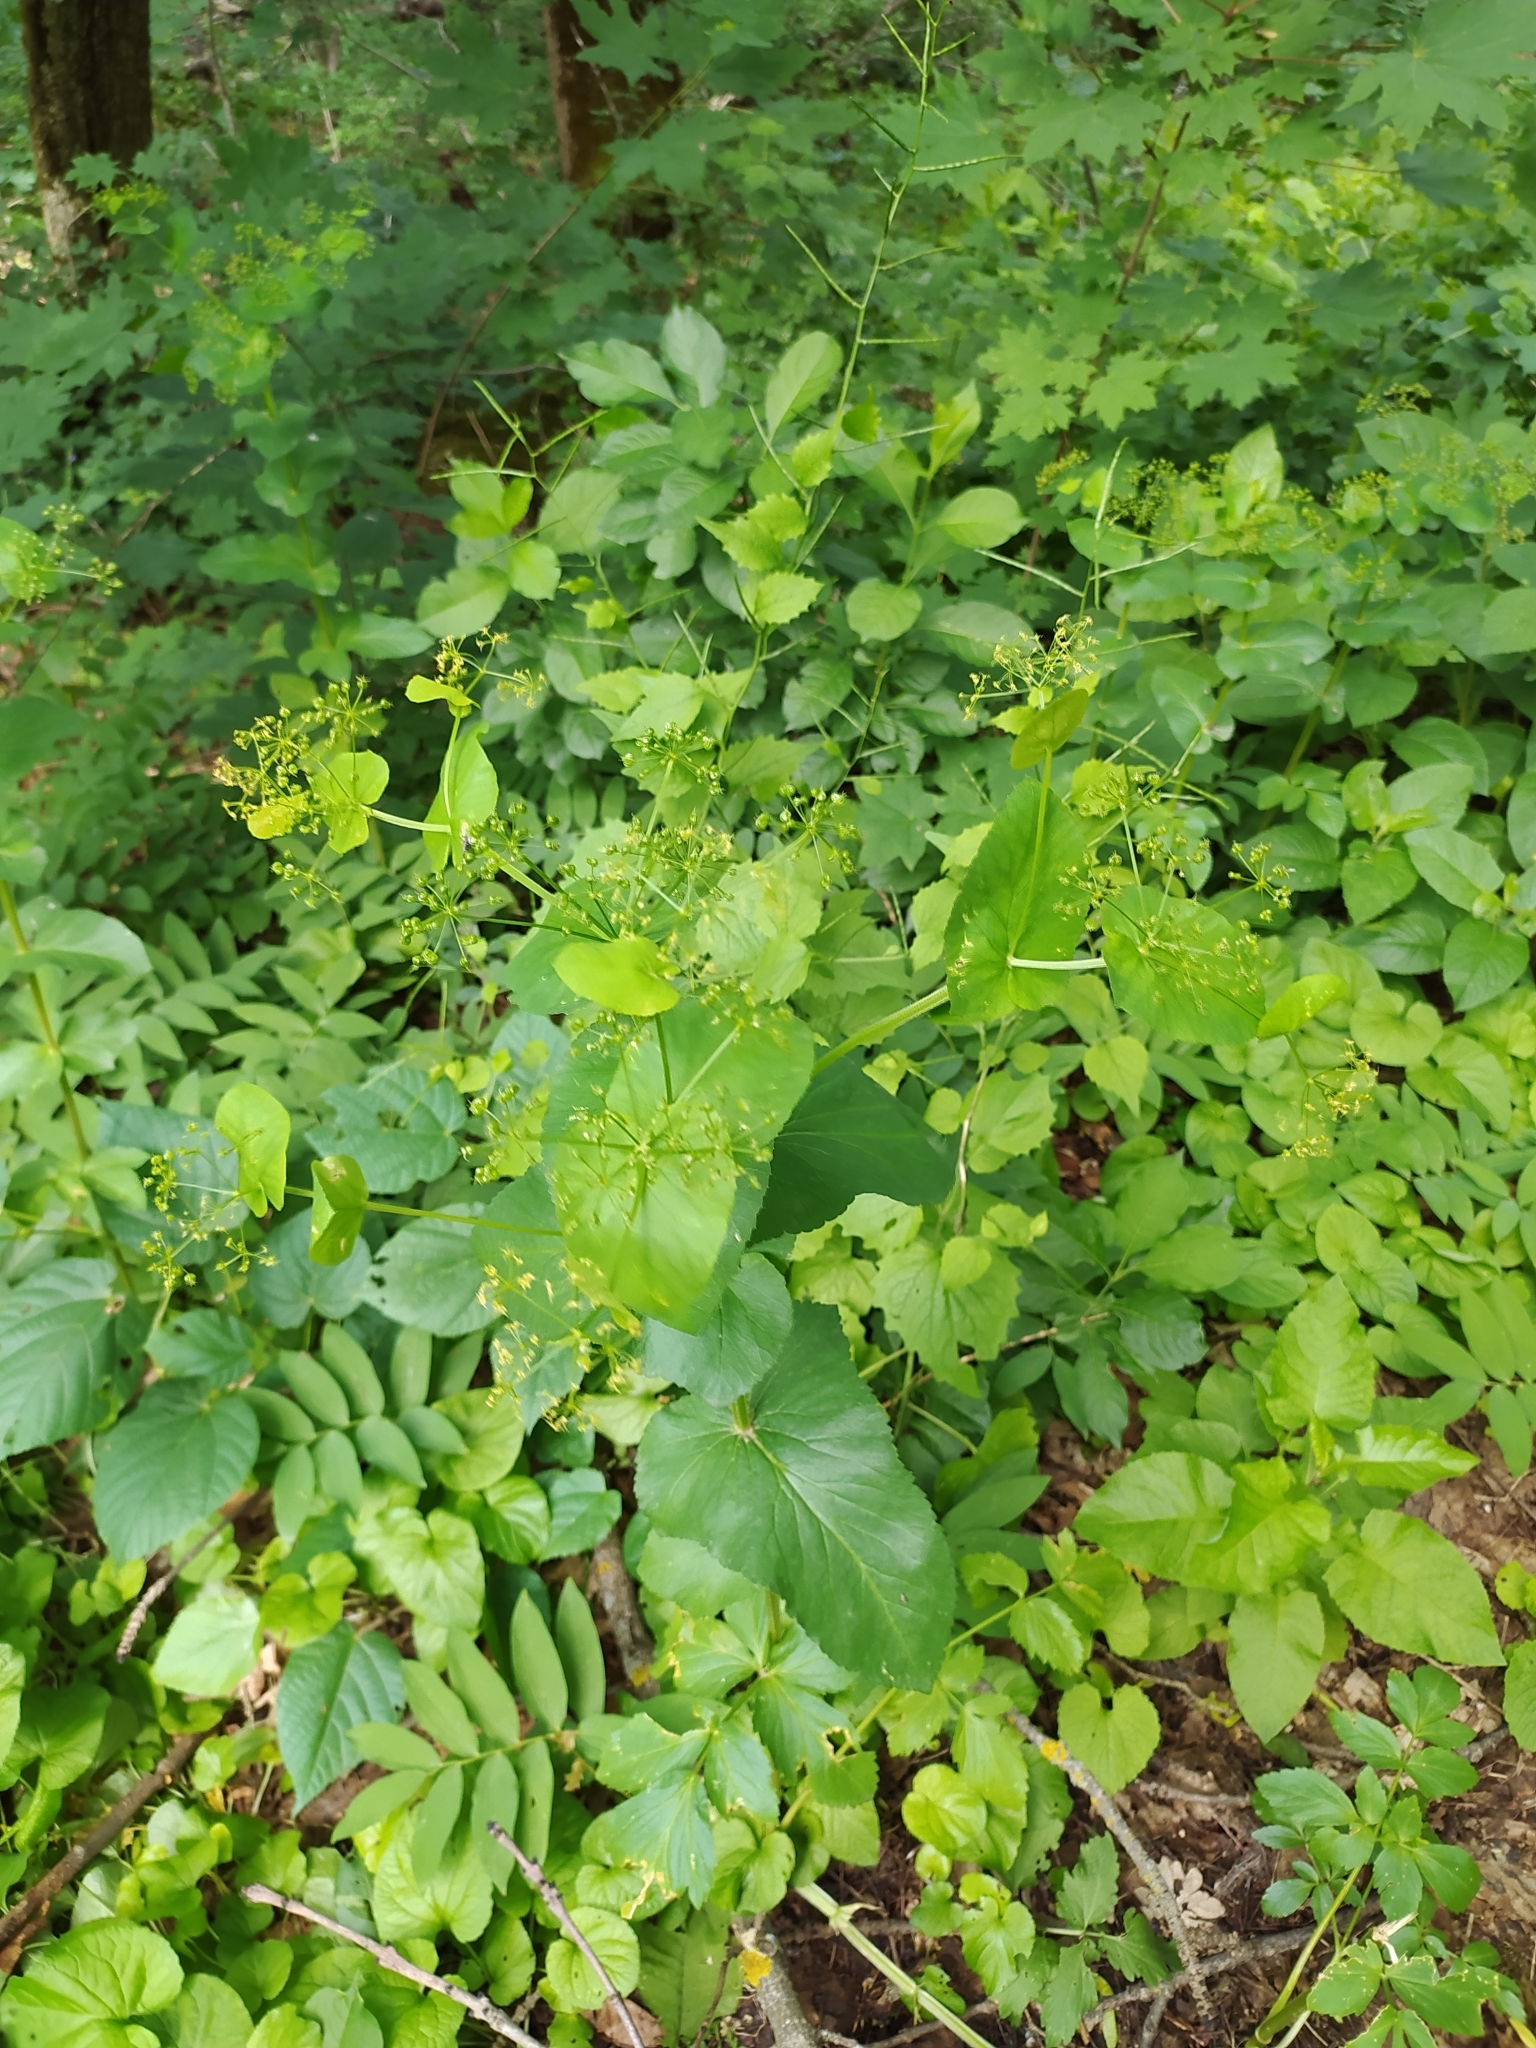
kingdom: Plantae
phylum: Tracheophyta
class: Magnoliopsida
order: Apiales
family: Apiaceae
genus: Smyrnium
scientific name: Smyrnium perfoliatum
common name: Perfoliate alexanders
